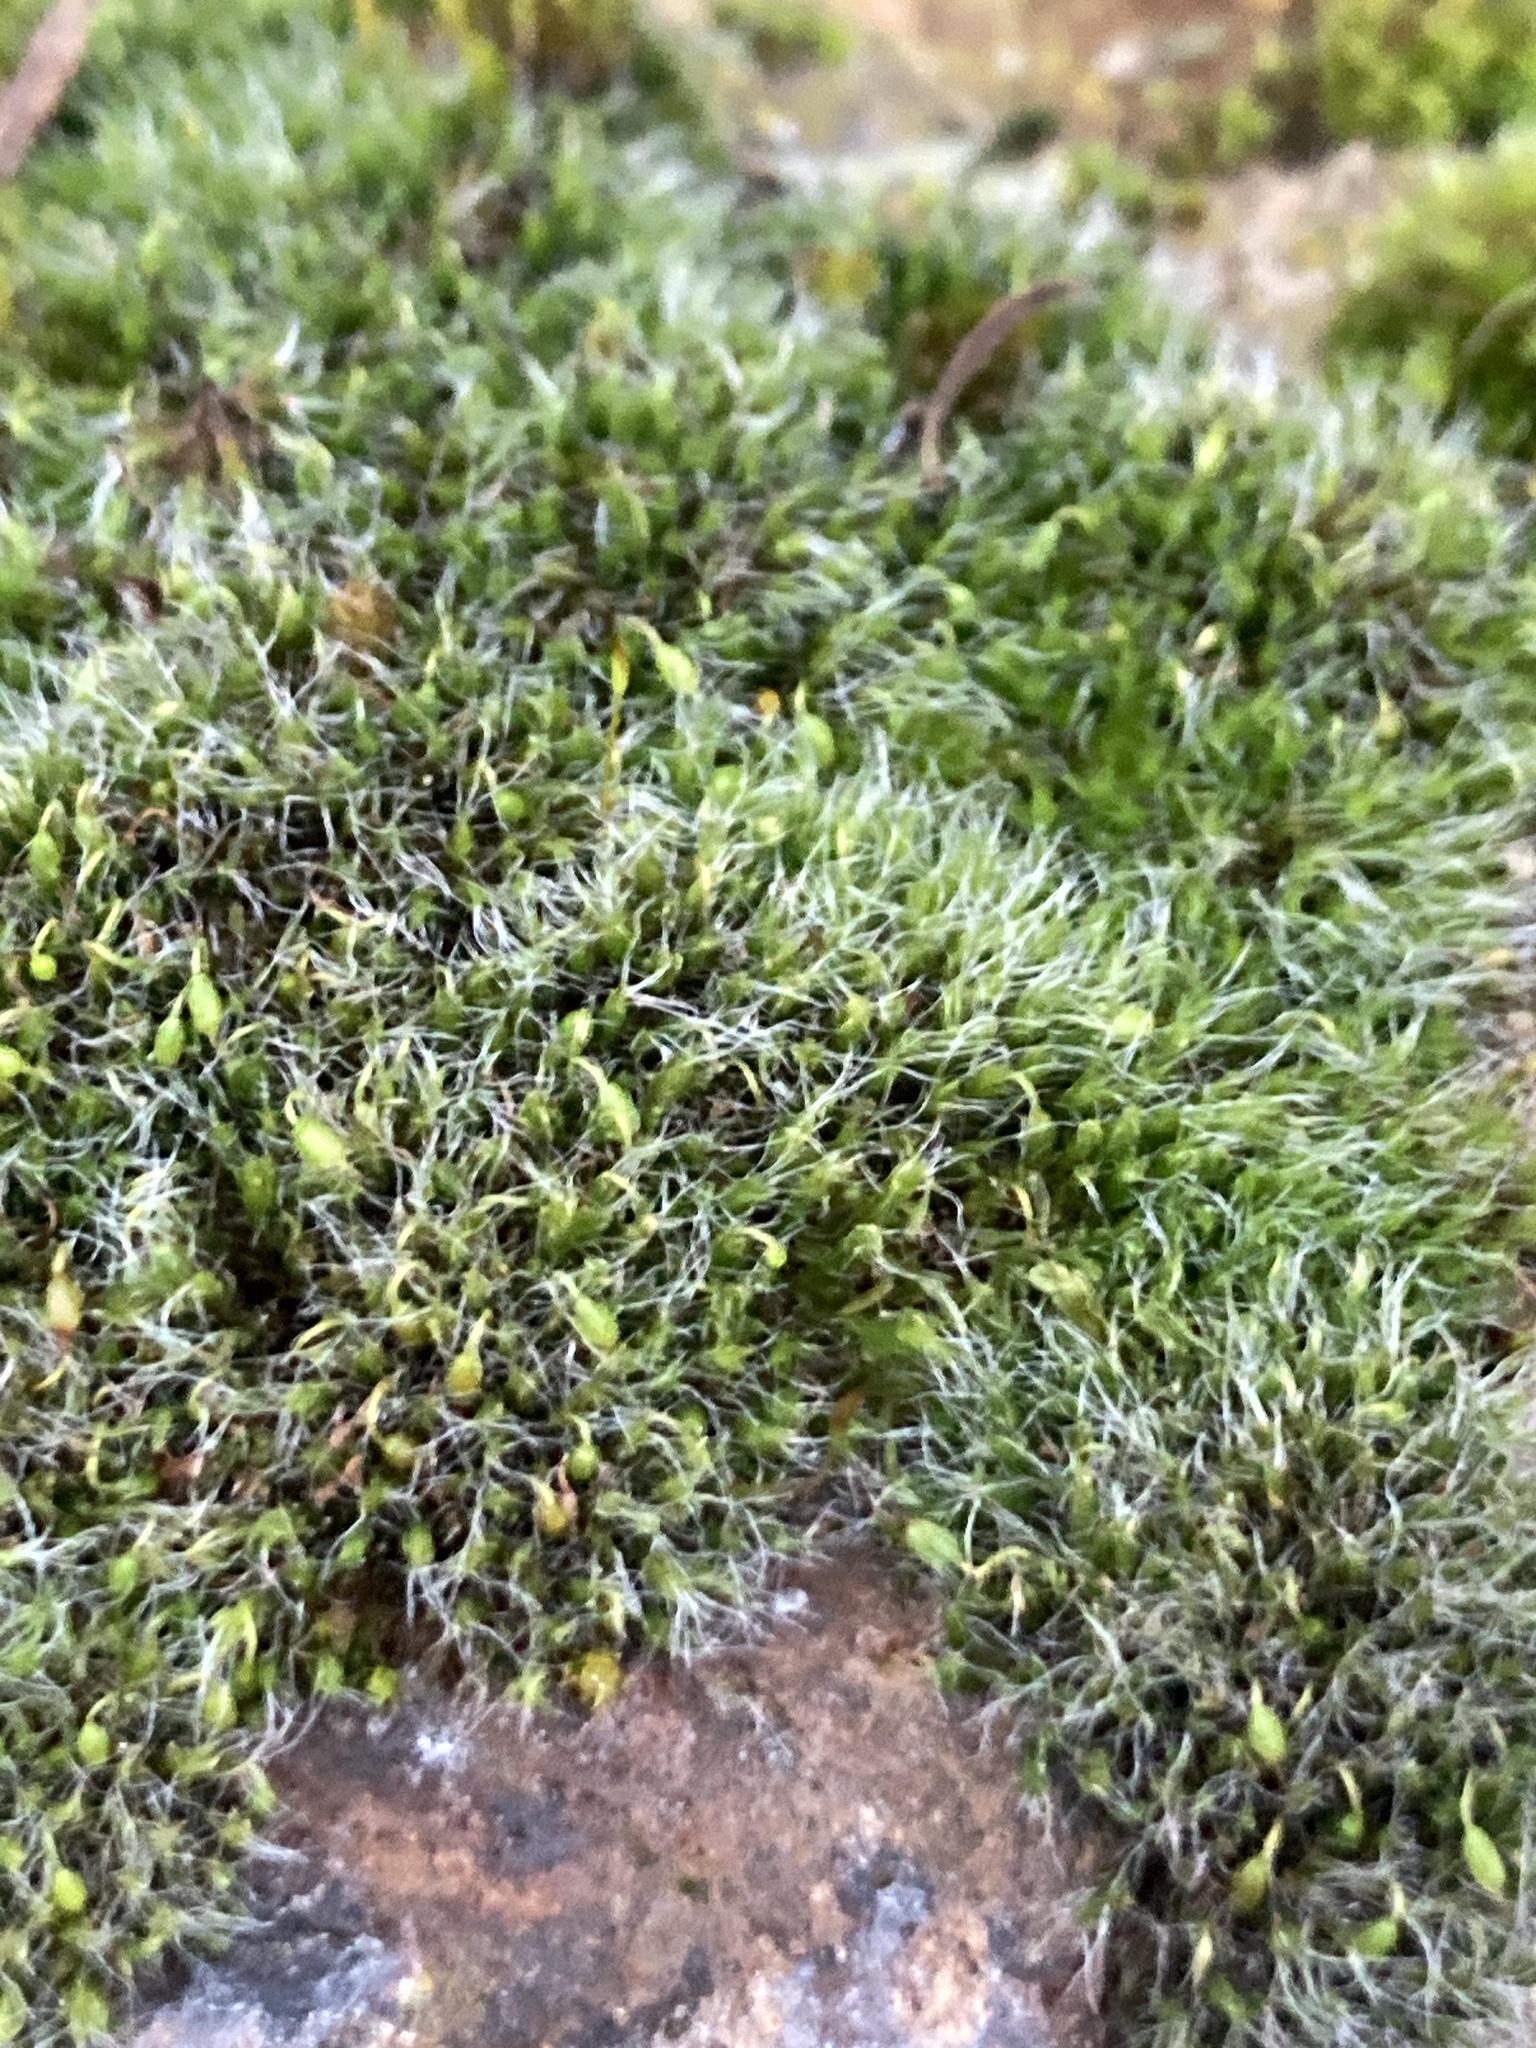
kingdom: Plantae
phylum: Bryophyta
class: Bryopsida
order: Grimmiales
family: Grimmiaceae
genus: Grimmia
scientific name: Grimmia pulvinata
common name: Grey-cushioned grimmia
